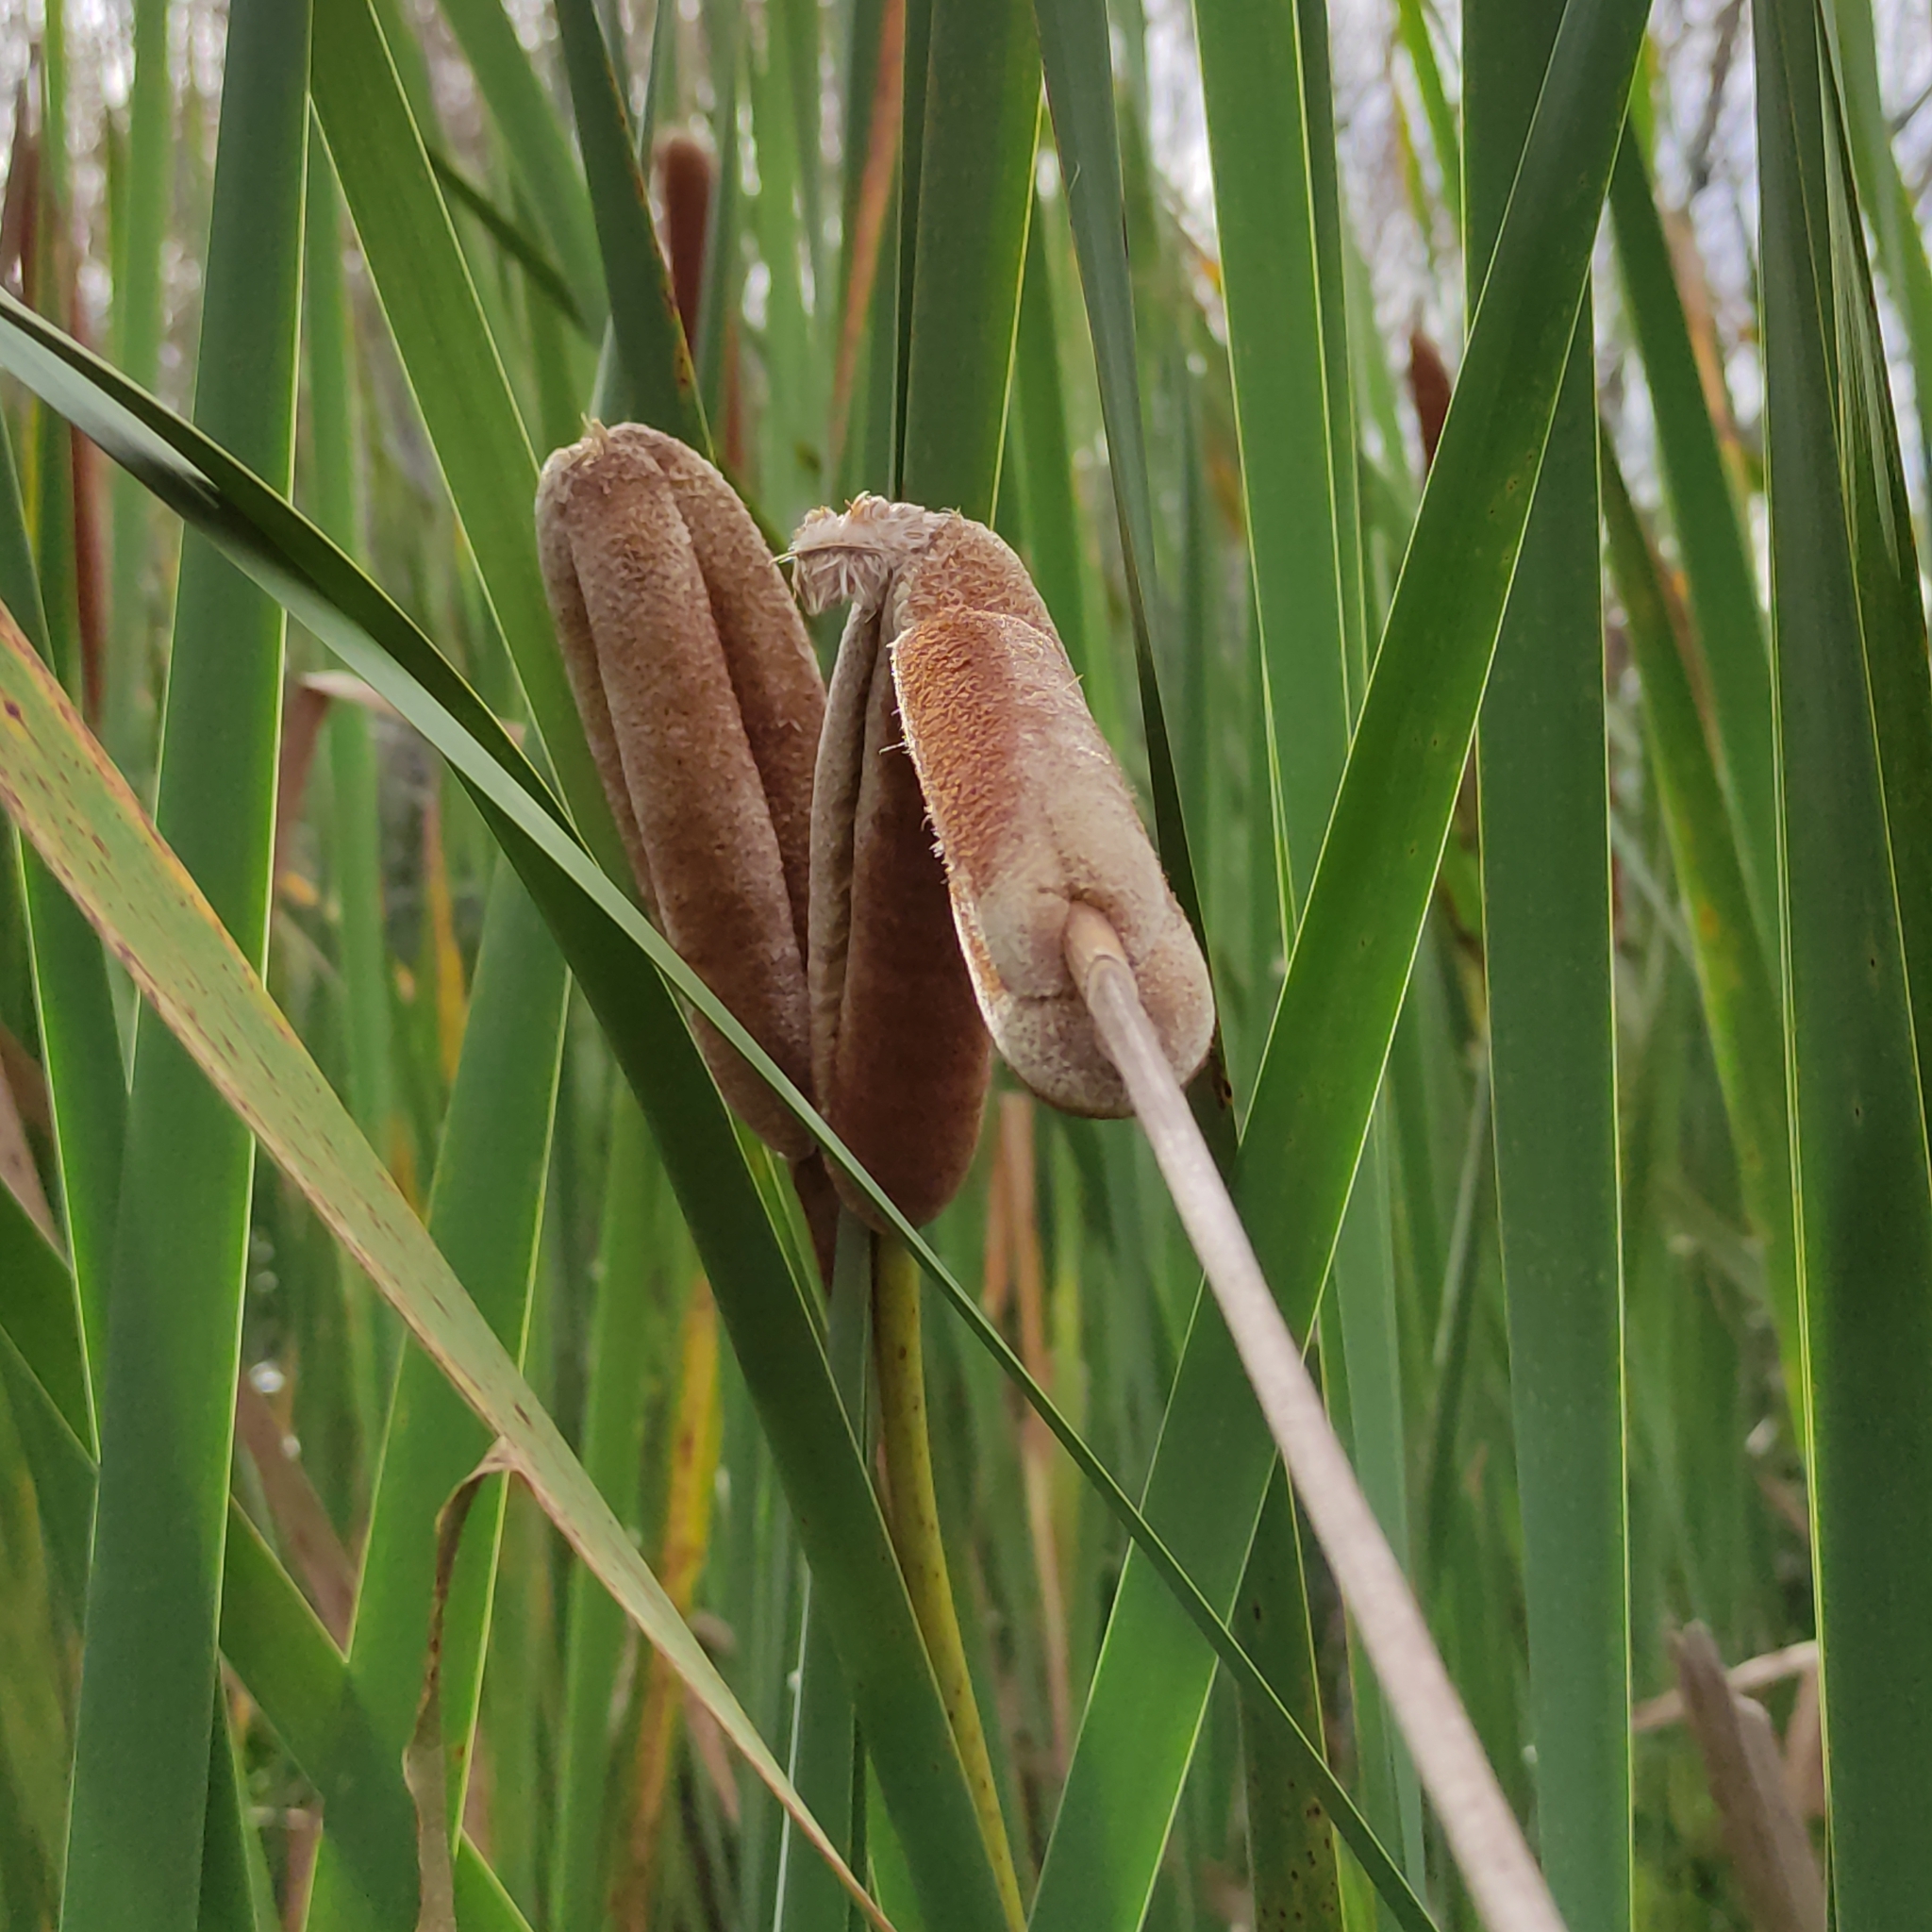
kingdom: Plantae
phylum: Tracheophyta
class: Liliopsida
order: Poales
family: Typhaceae
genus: Typha
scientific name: Typha orientalis
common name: Bullrush
